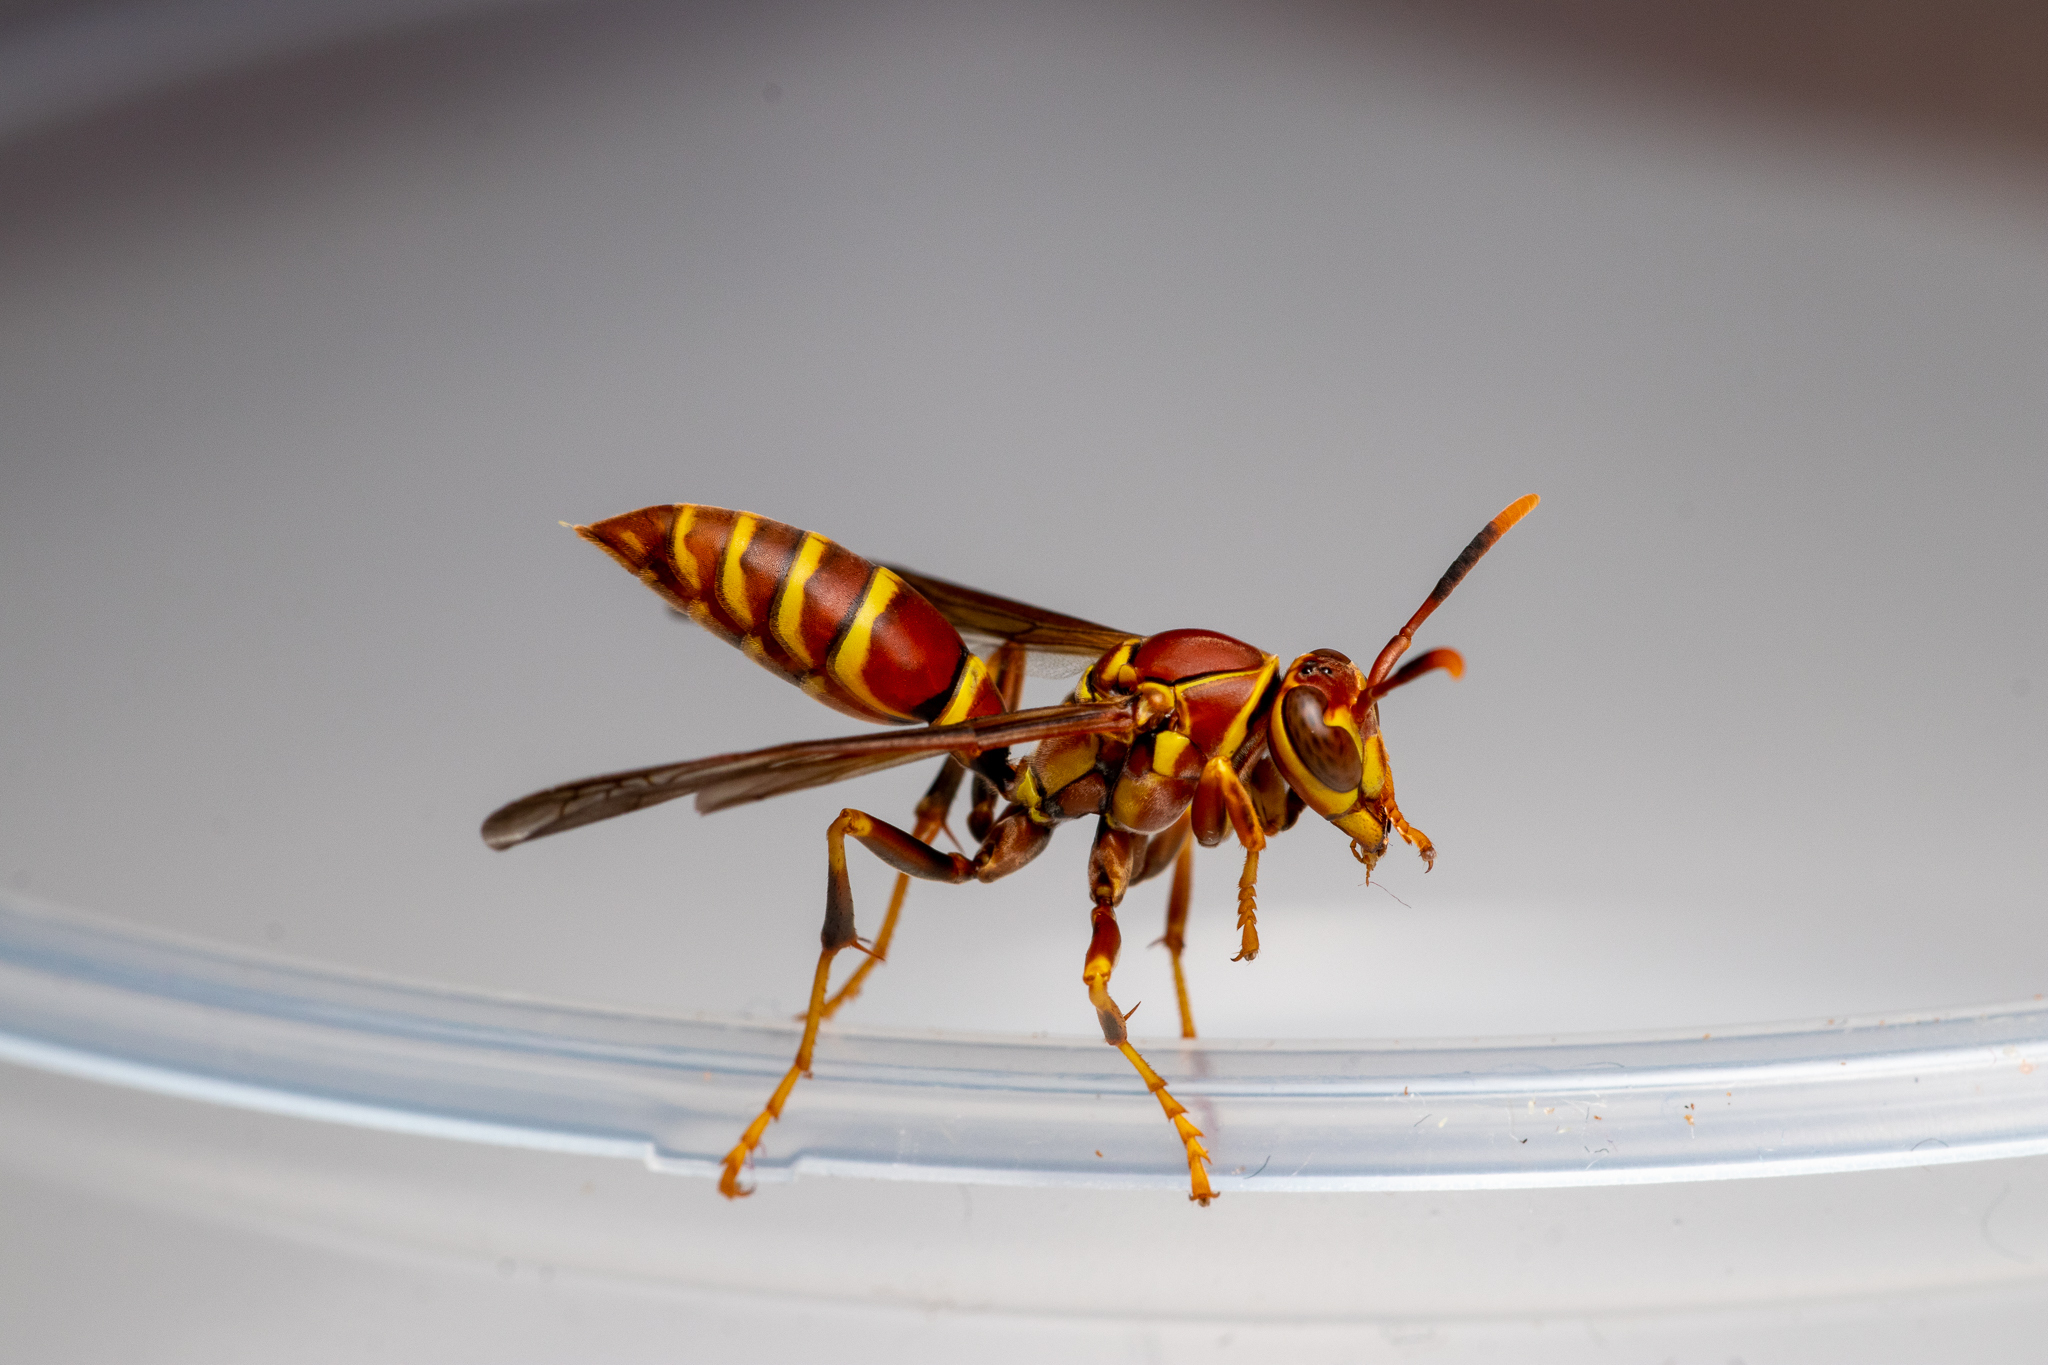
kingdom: Animalia
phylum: Arthropoda
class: Insecta
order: Hymenoptera
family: Eumenidae
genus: Polistes
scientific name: Polistes exclamans
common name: Paper wasp
